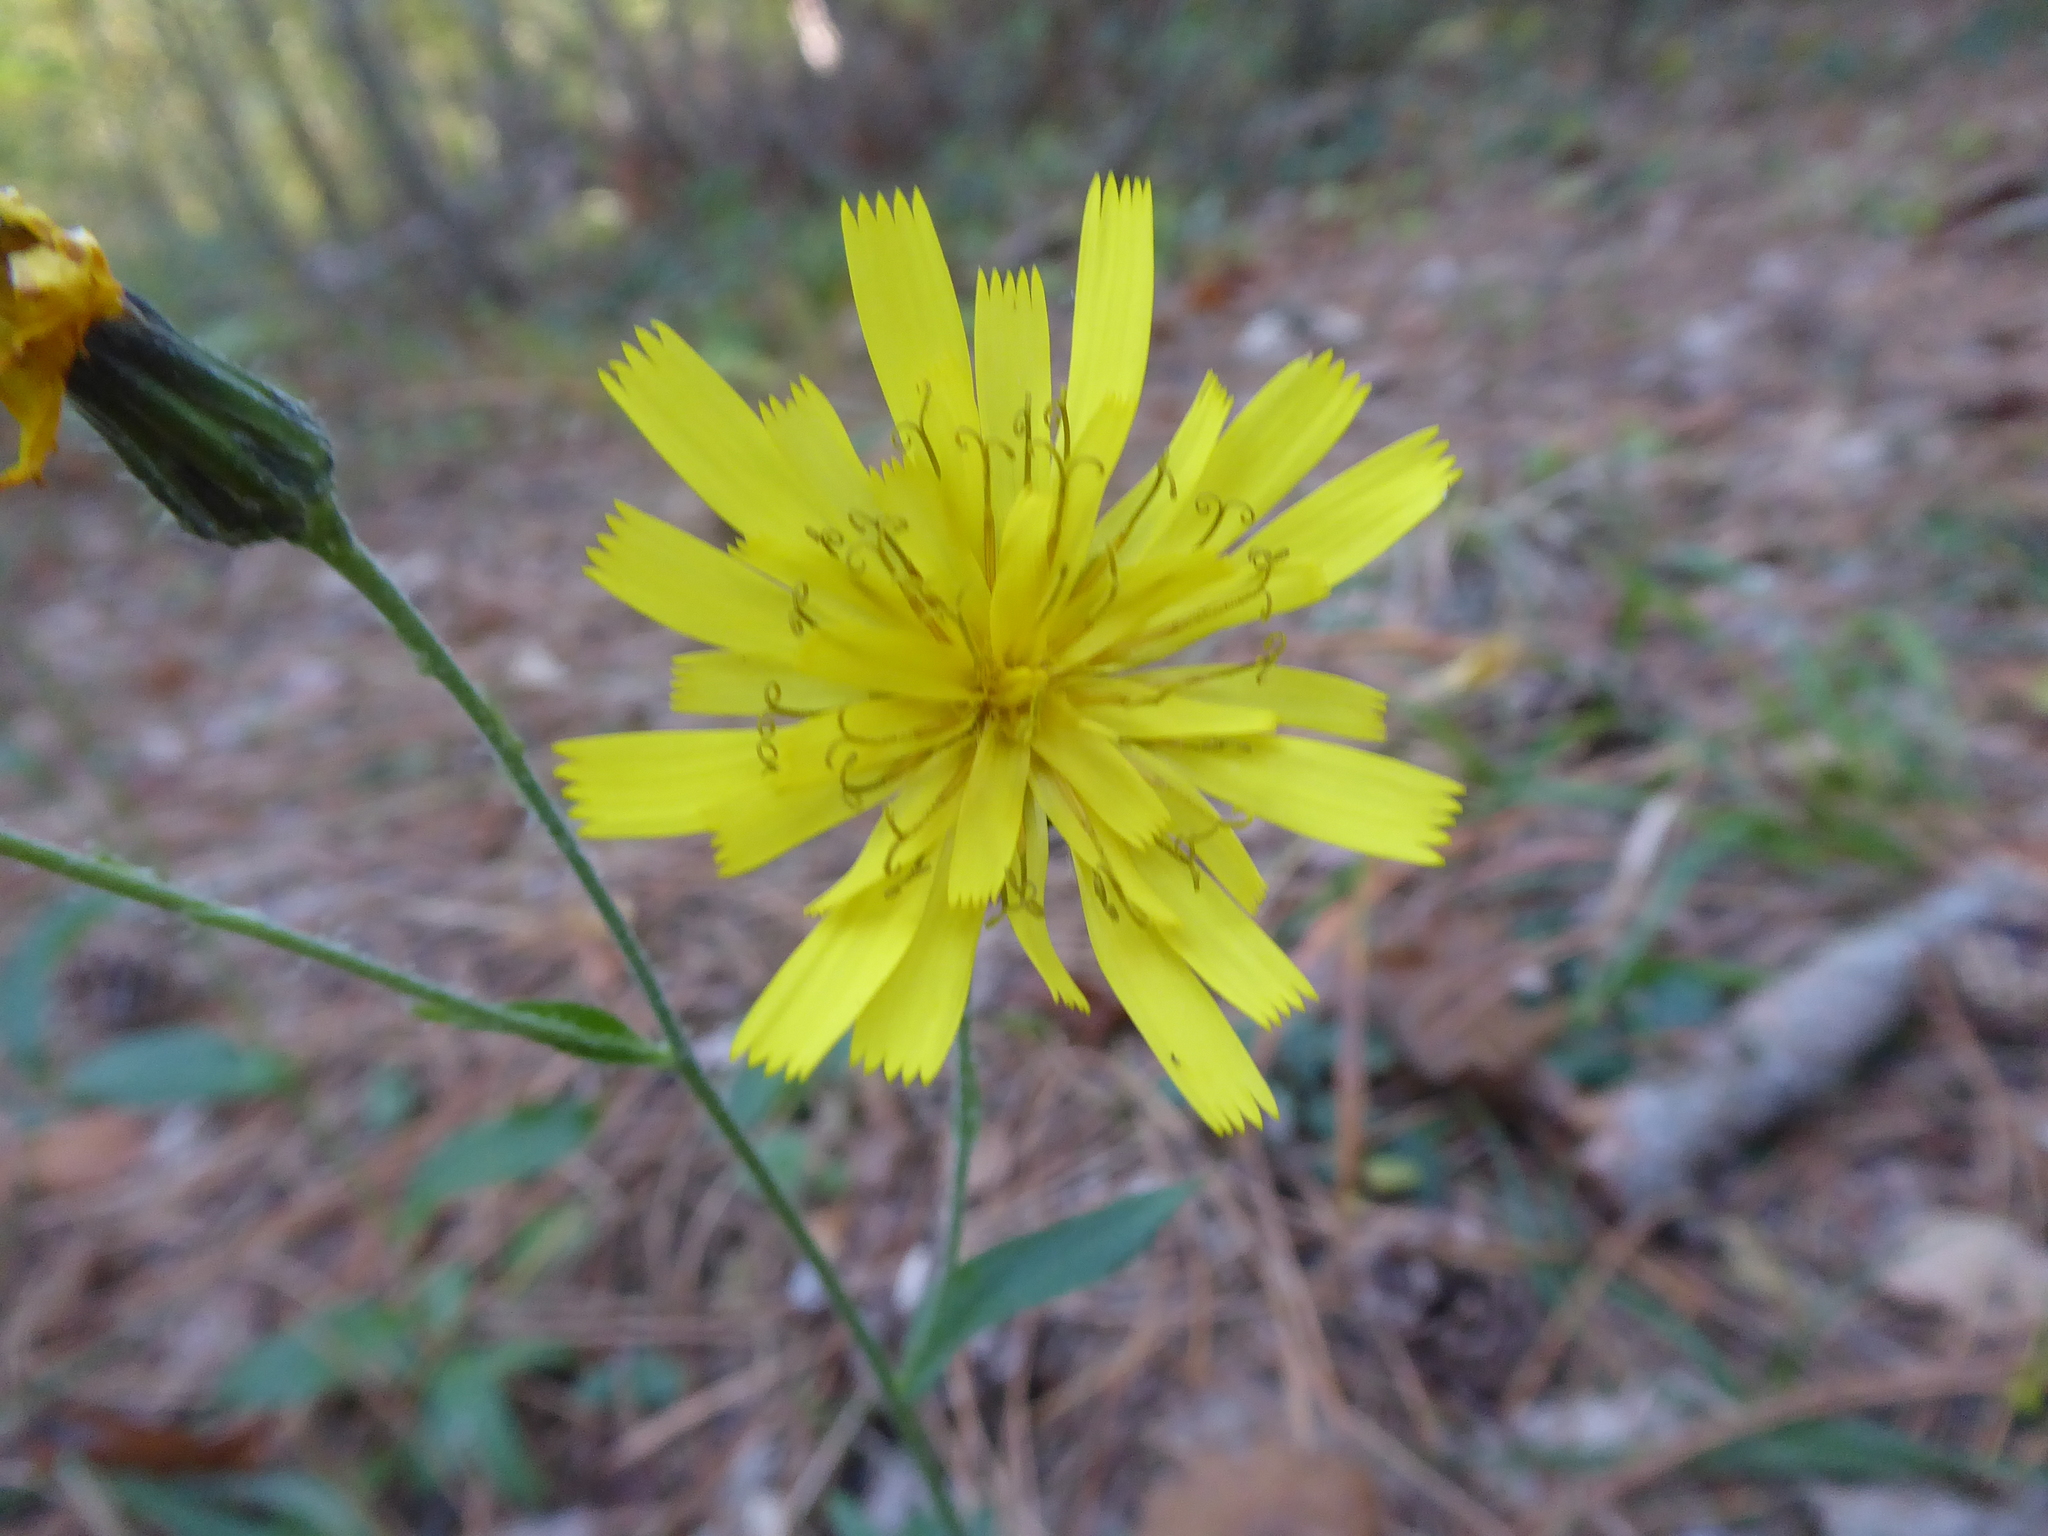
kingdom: Plantae
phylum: Tracheophyta
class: Magnoliopsida
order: Asterales
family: Asteraceae
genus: Hieracium
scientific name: Hieracium sabaudum
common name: New england hawkweed
